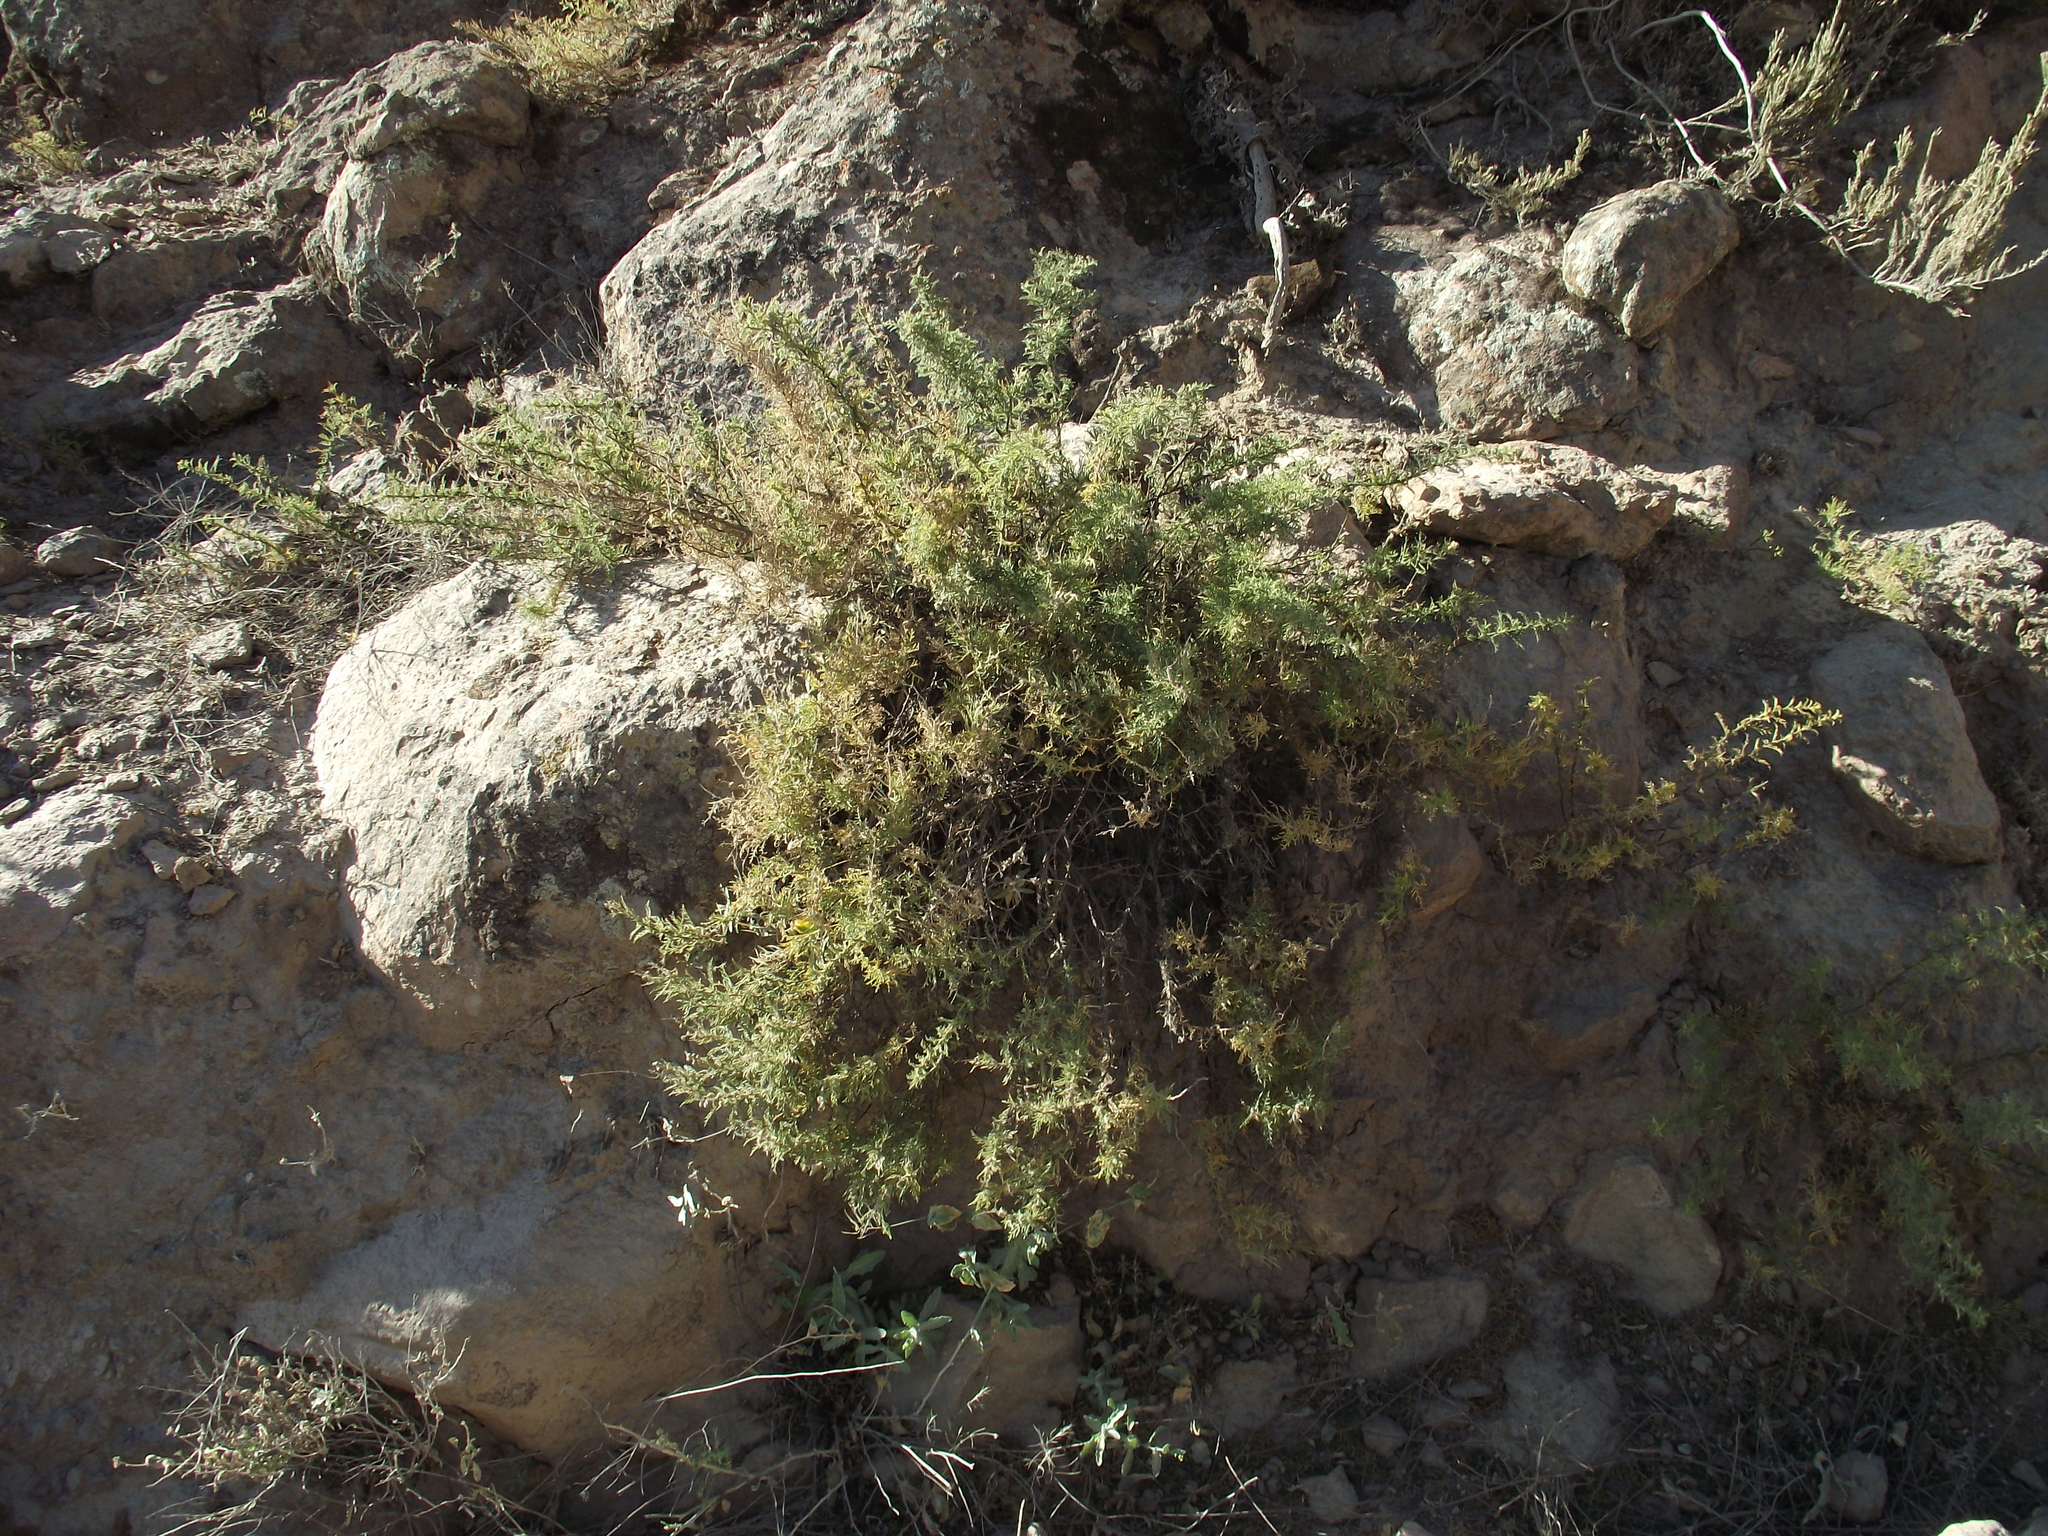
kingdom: Plantae
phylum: Tracheophyta
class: Magnoliopsida
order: Asterales
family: Asteraceae
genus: Ambrosia
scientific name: Ambrosia artemisioides
